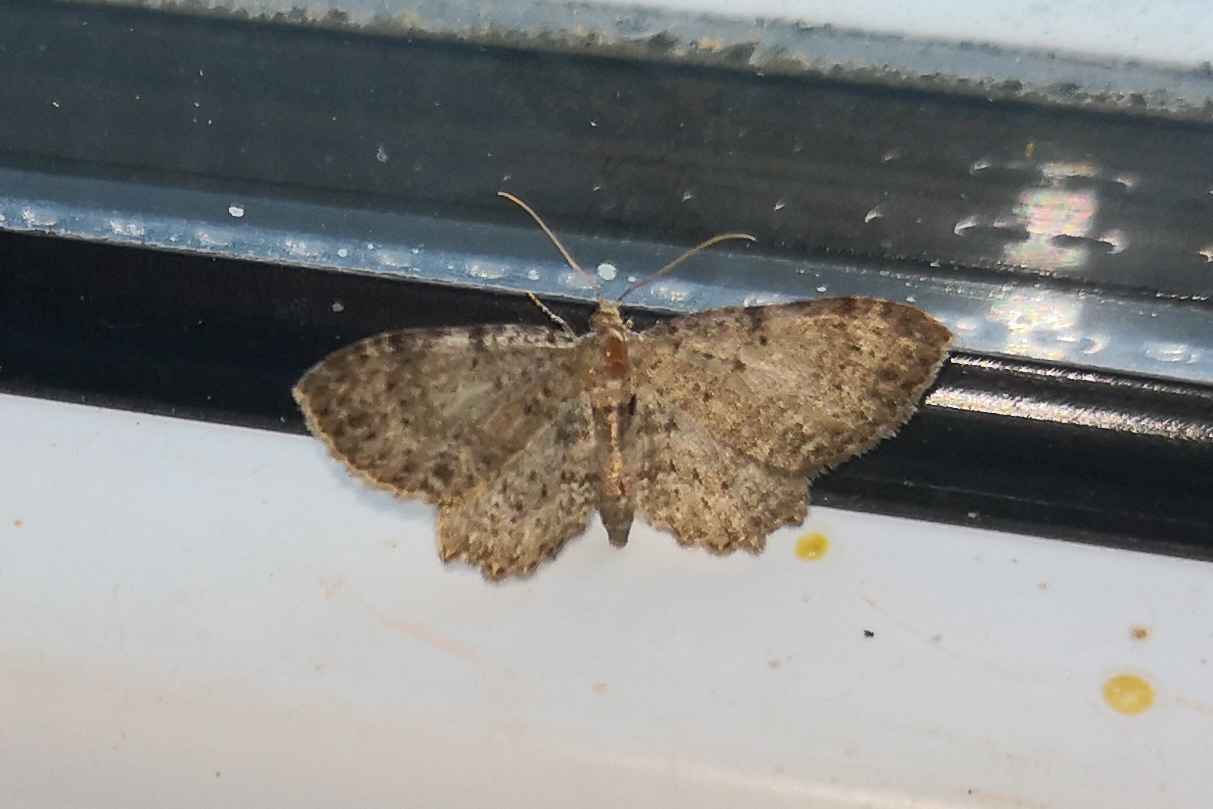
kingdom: Animalia
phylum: Arthropoda
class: Insecta
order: Lepidoptera
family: Geometridae
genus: Anticollix
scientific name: Anticollix sparsata
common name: Dentated pug
